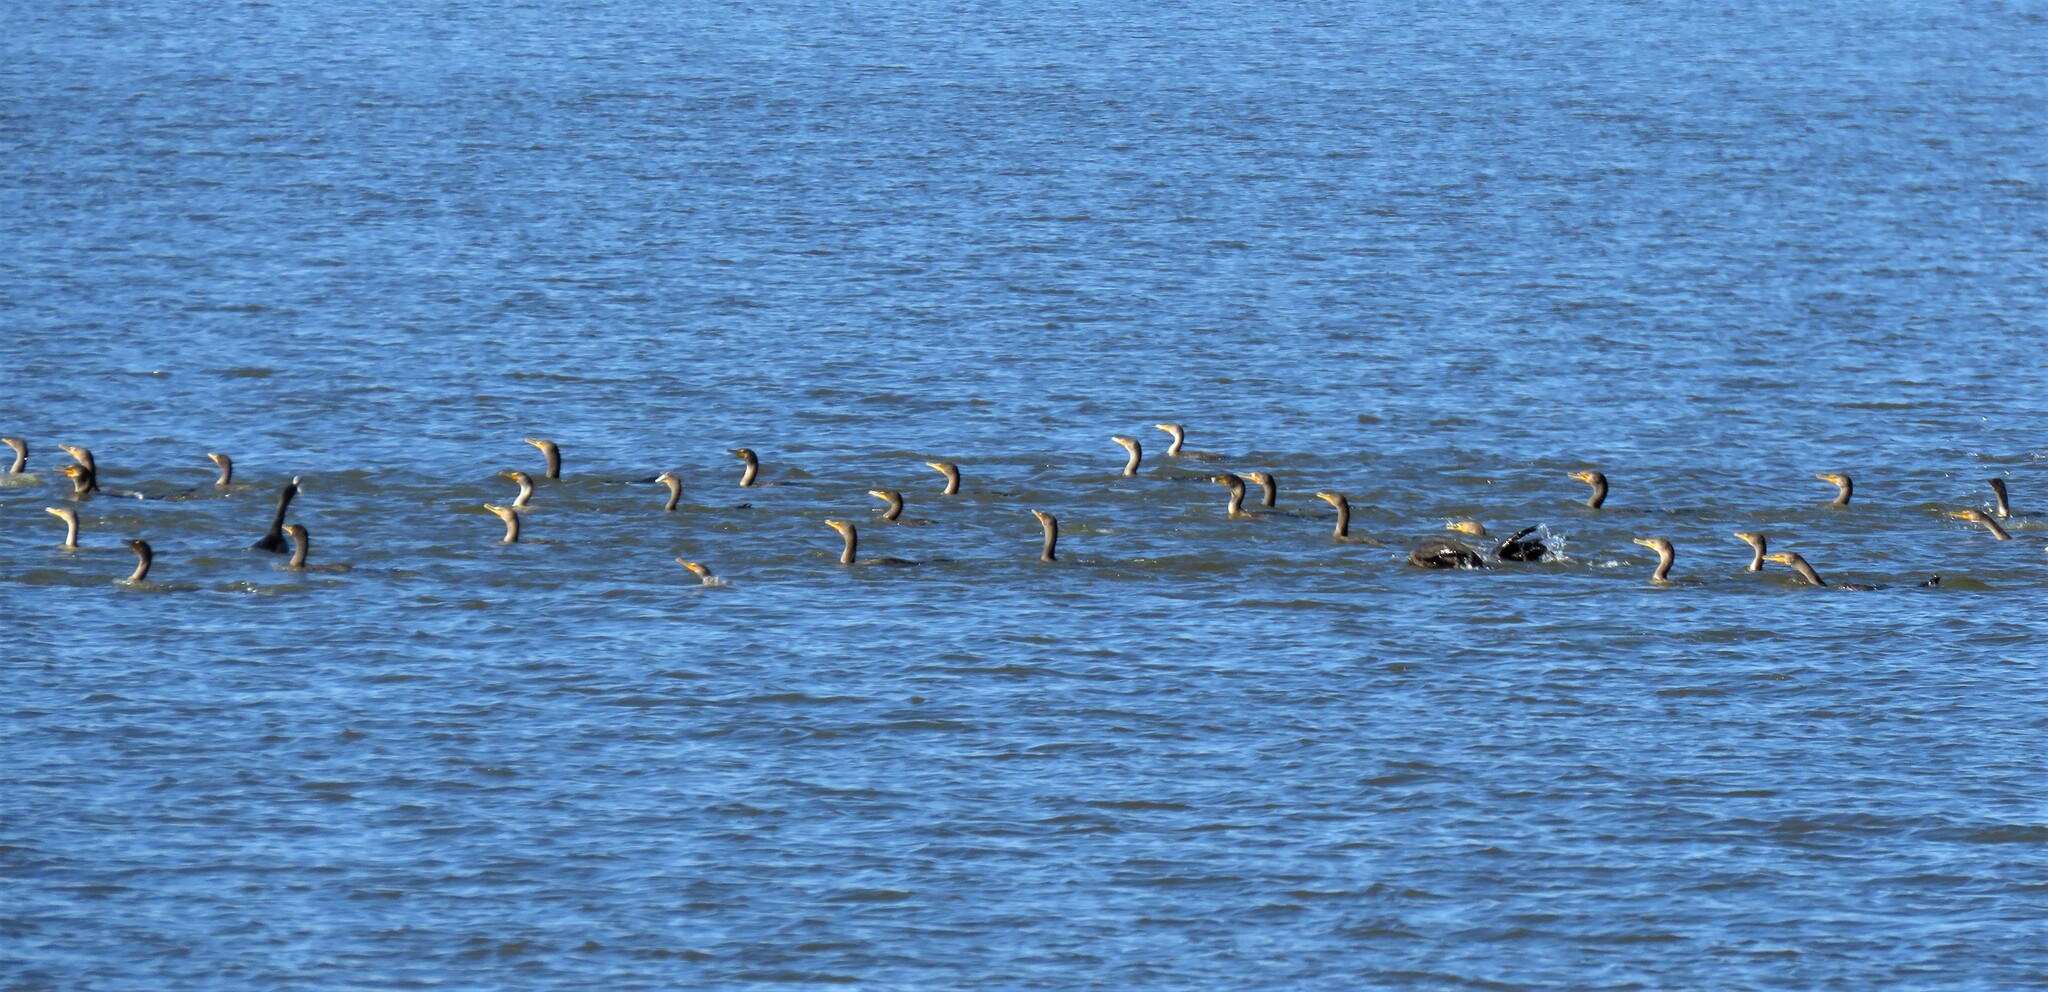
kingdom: Animalia
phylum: Chordata
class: Aves
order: Suliformes
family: Phalacrocoracidae
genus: Phalacrocorax
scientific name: Phalacrocorax auritus
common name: Double-crested cormorant
